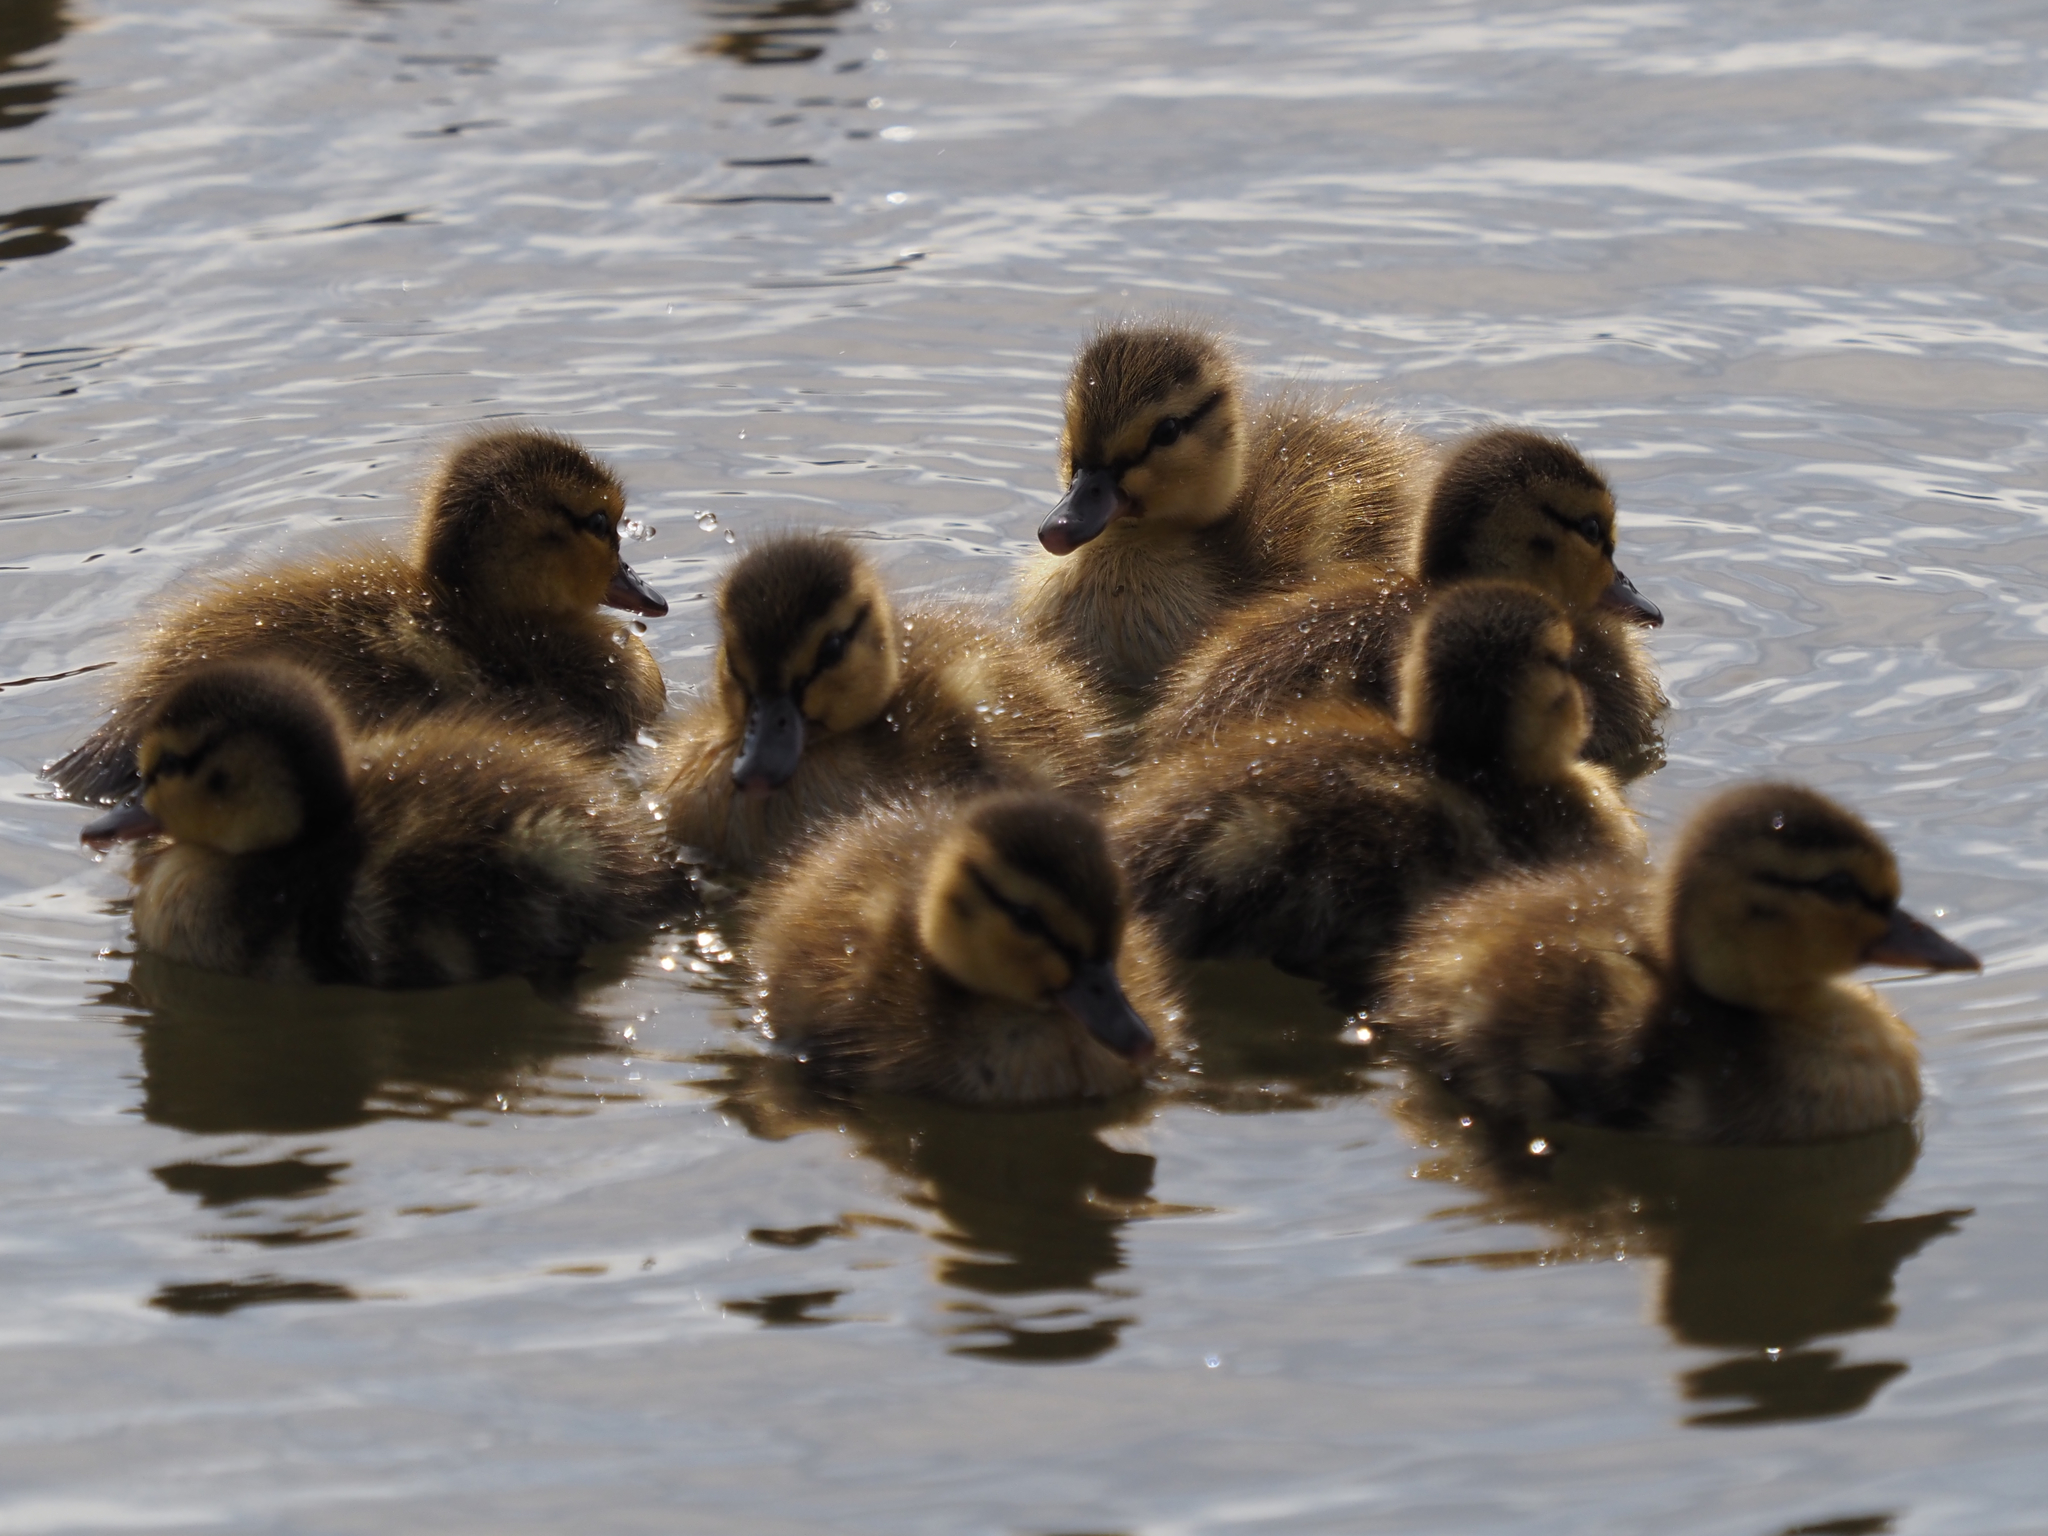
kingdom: Animalia
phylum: Chordata
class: Aves
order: Anseriformes
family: Anatidae
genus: Anas
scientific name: Anas platyrhynchos
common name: Mallard
